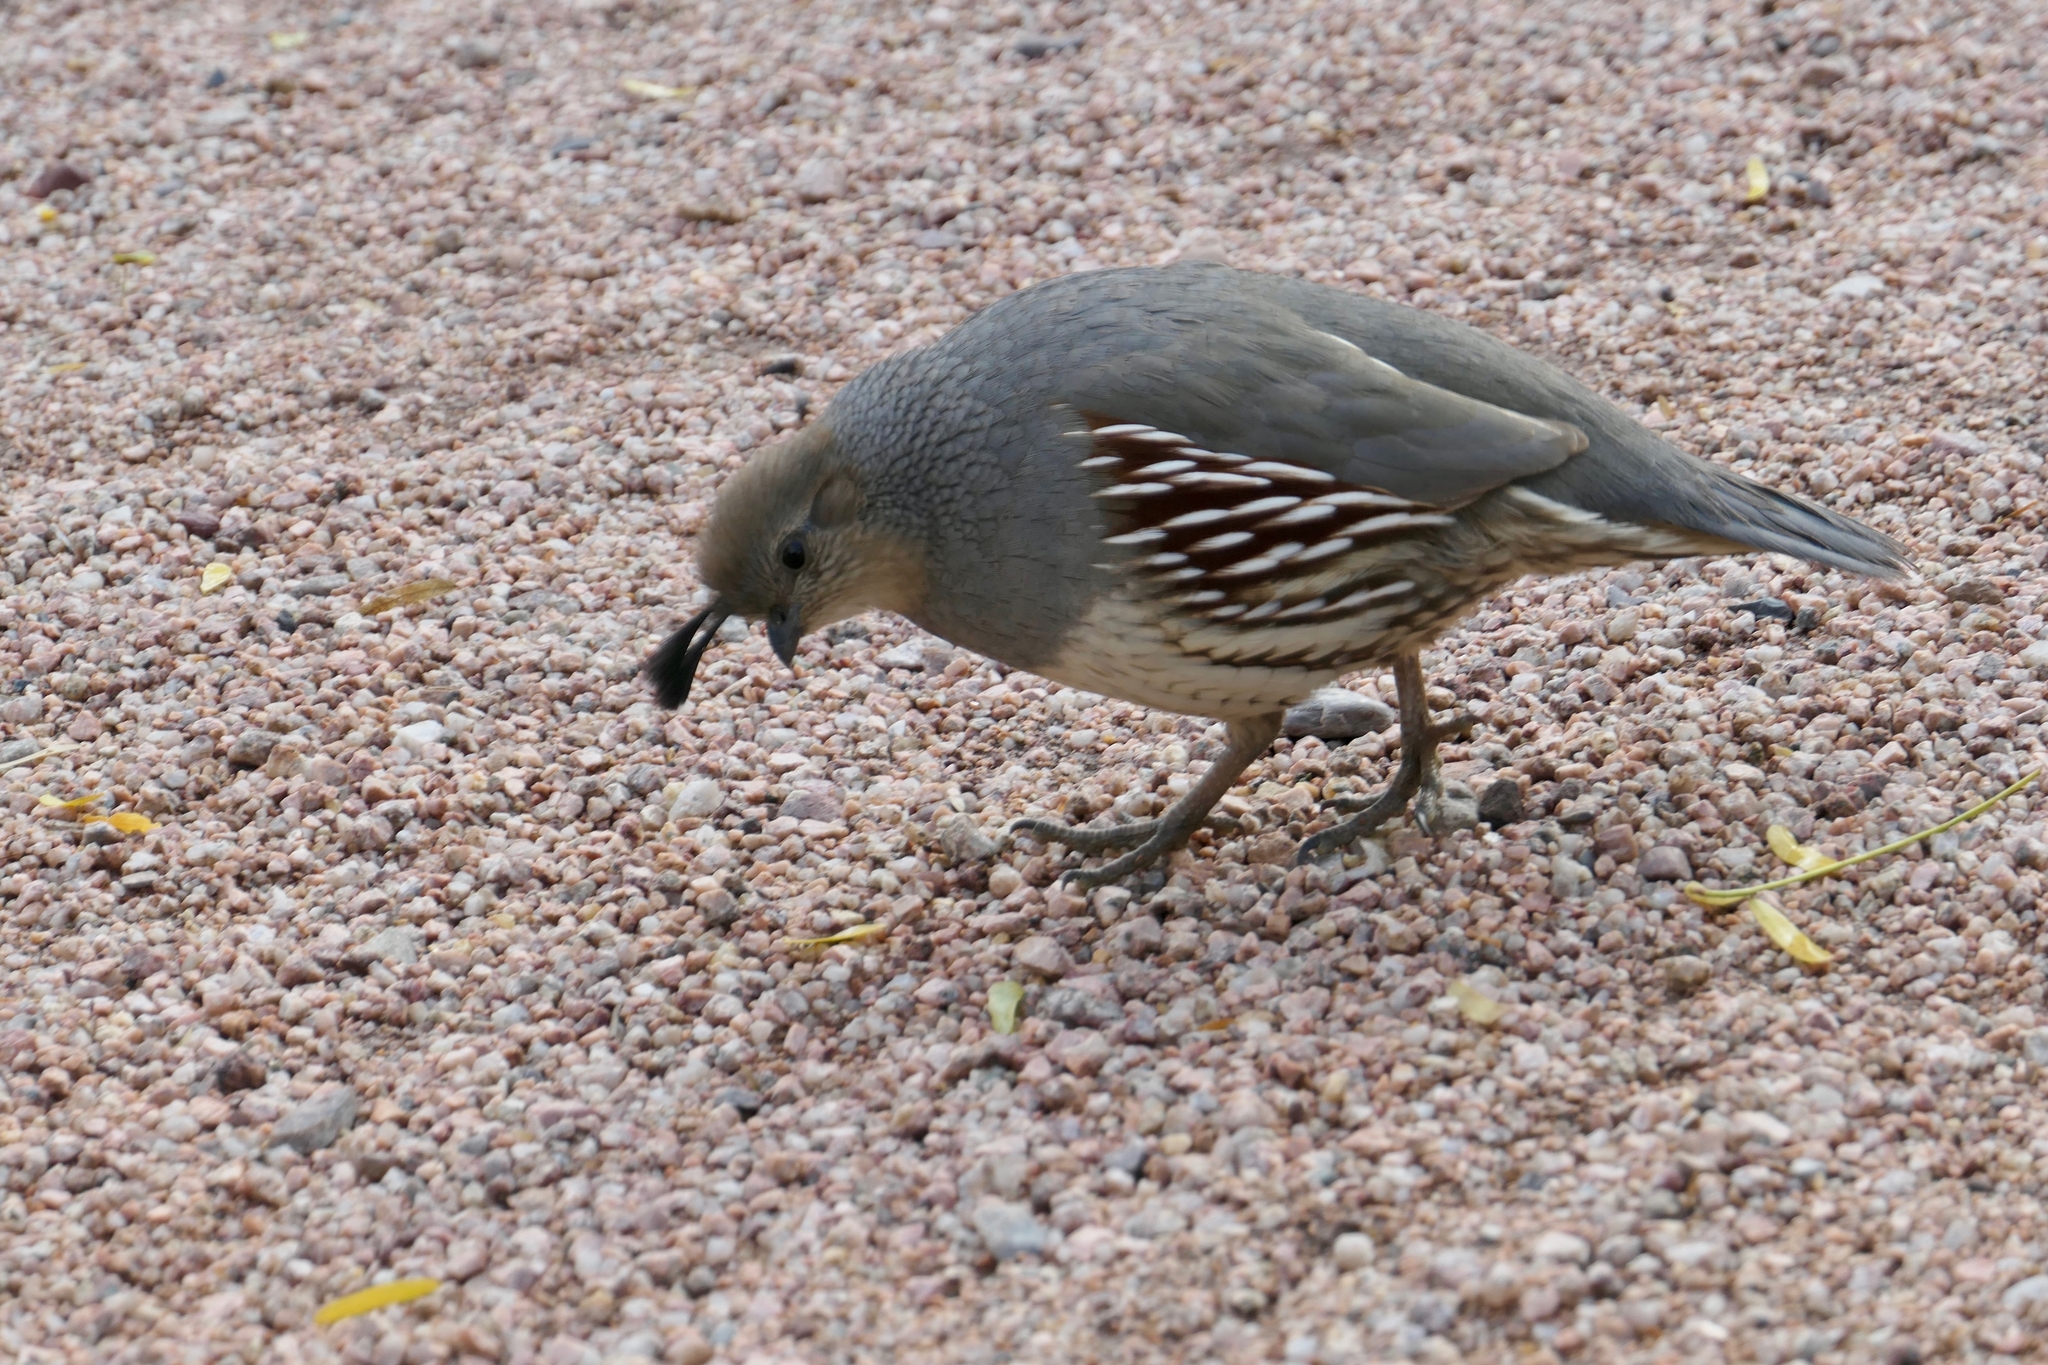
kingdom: Animalia
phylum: Chordata
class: Aves
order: Galliformes
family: Odontophoridae
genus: Callipepla
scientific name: Callipepla gambelii
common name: Gambel's quail
